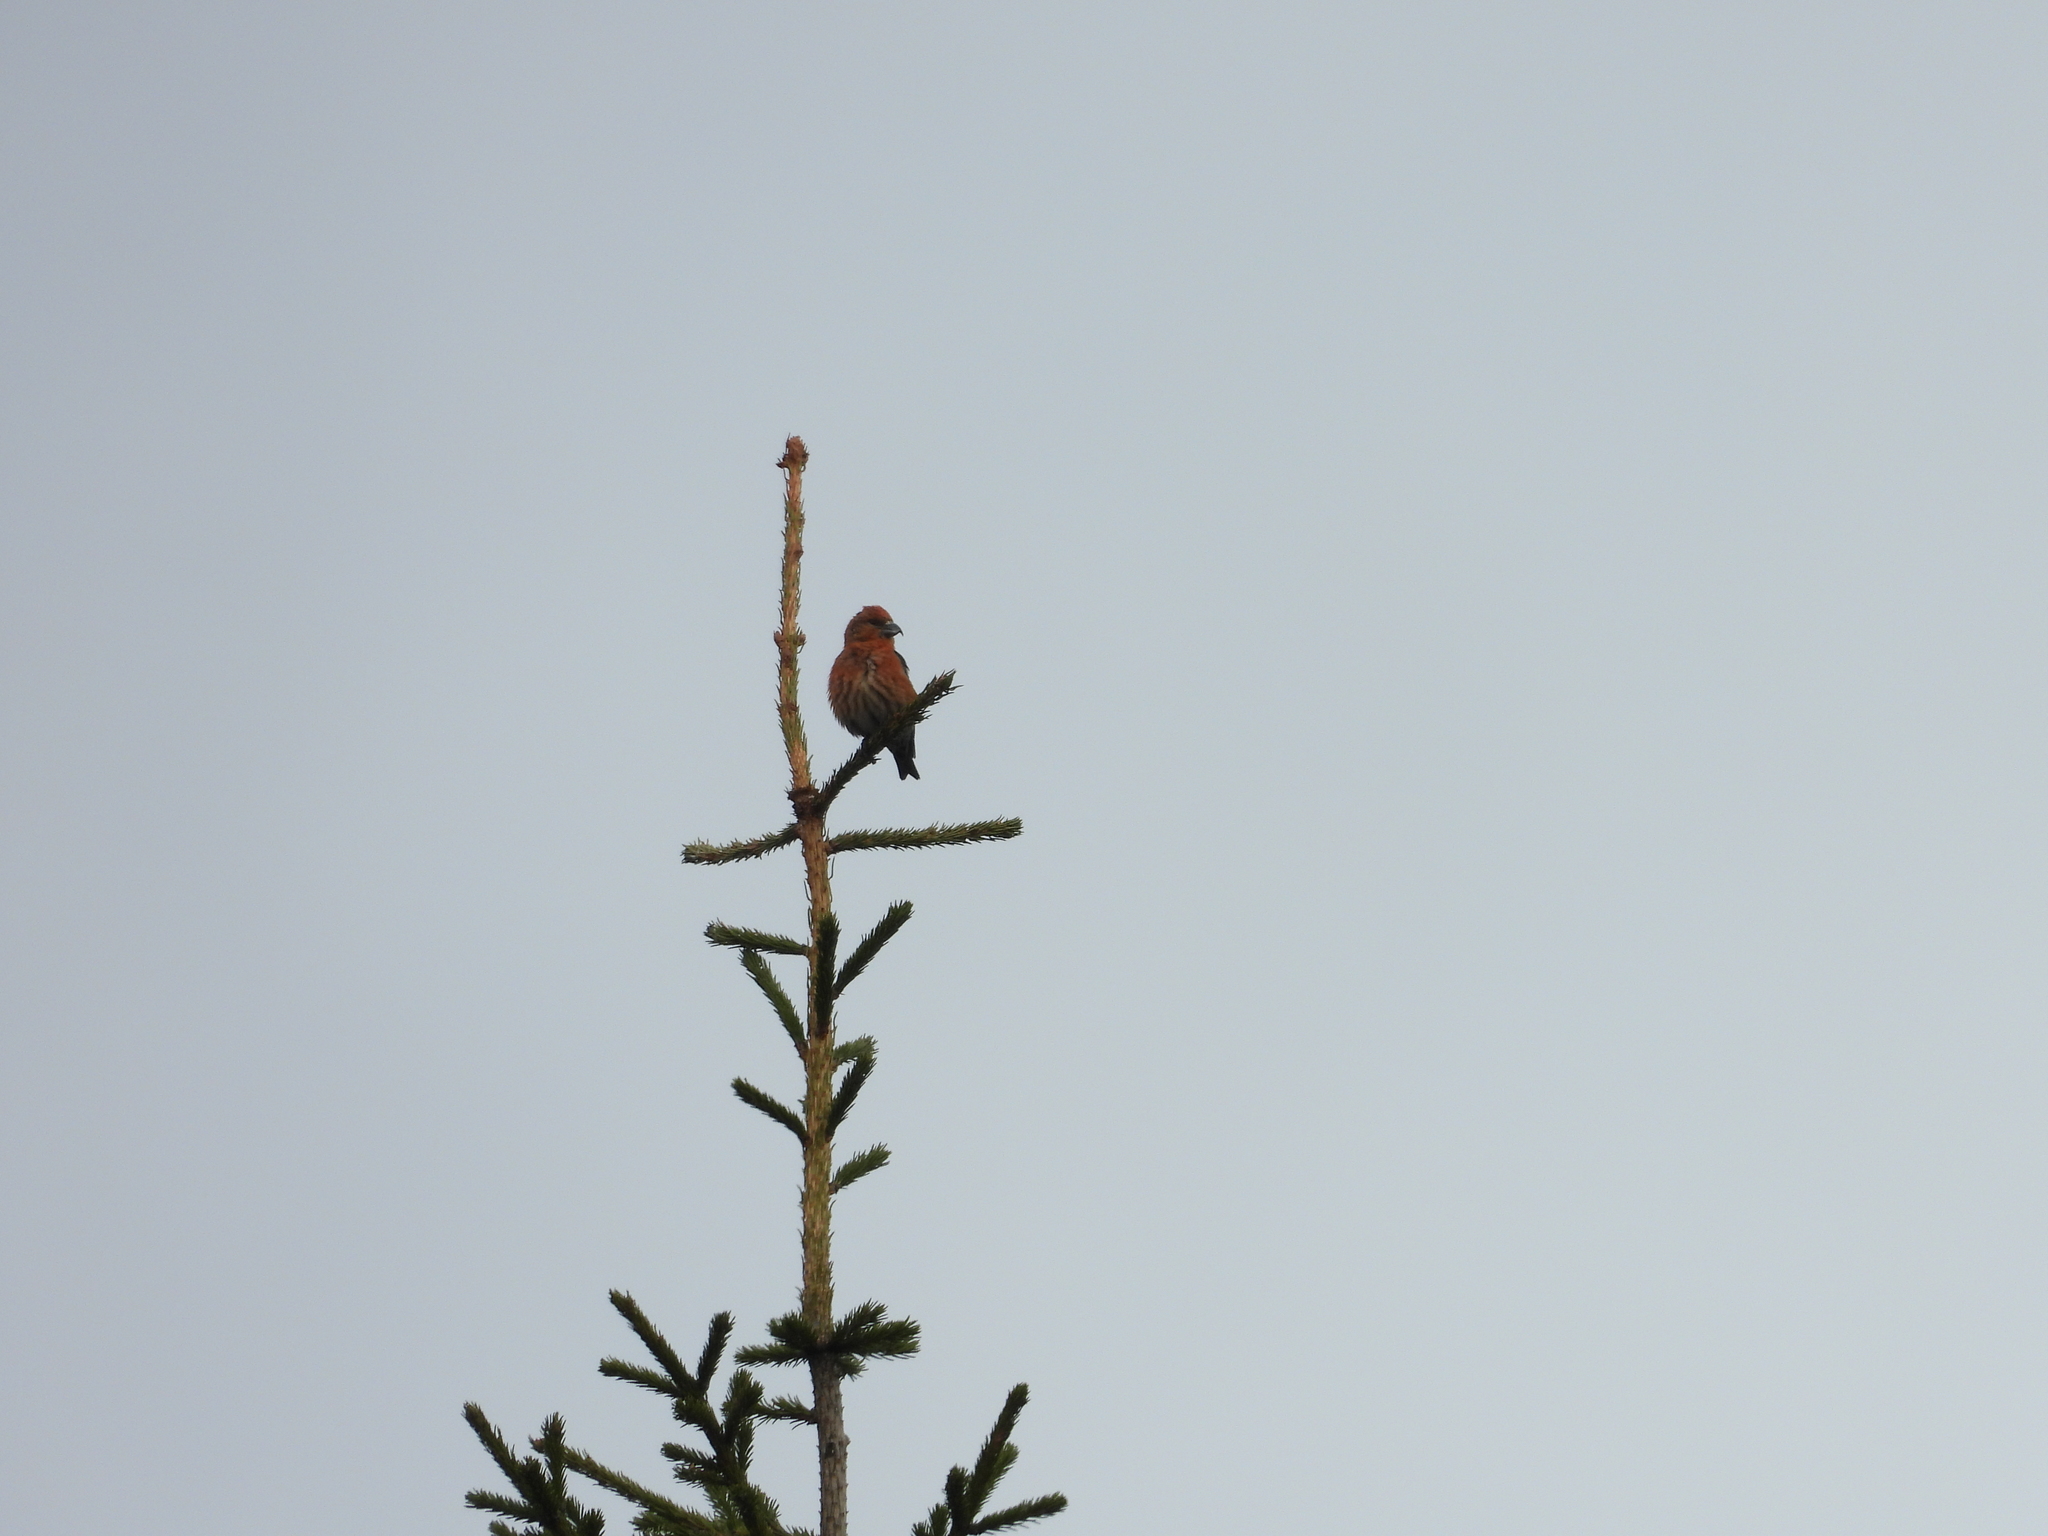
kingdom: Animalia
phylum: Chordata
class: Aves
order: Passeriformes
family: Fringillidae
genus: Loxia
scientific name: Loxia curvirostra
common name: Red crossbill
